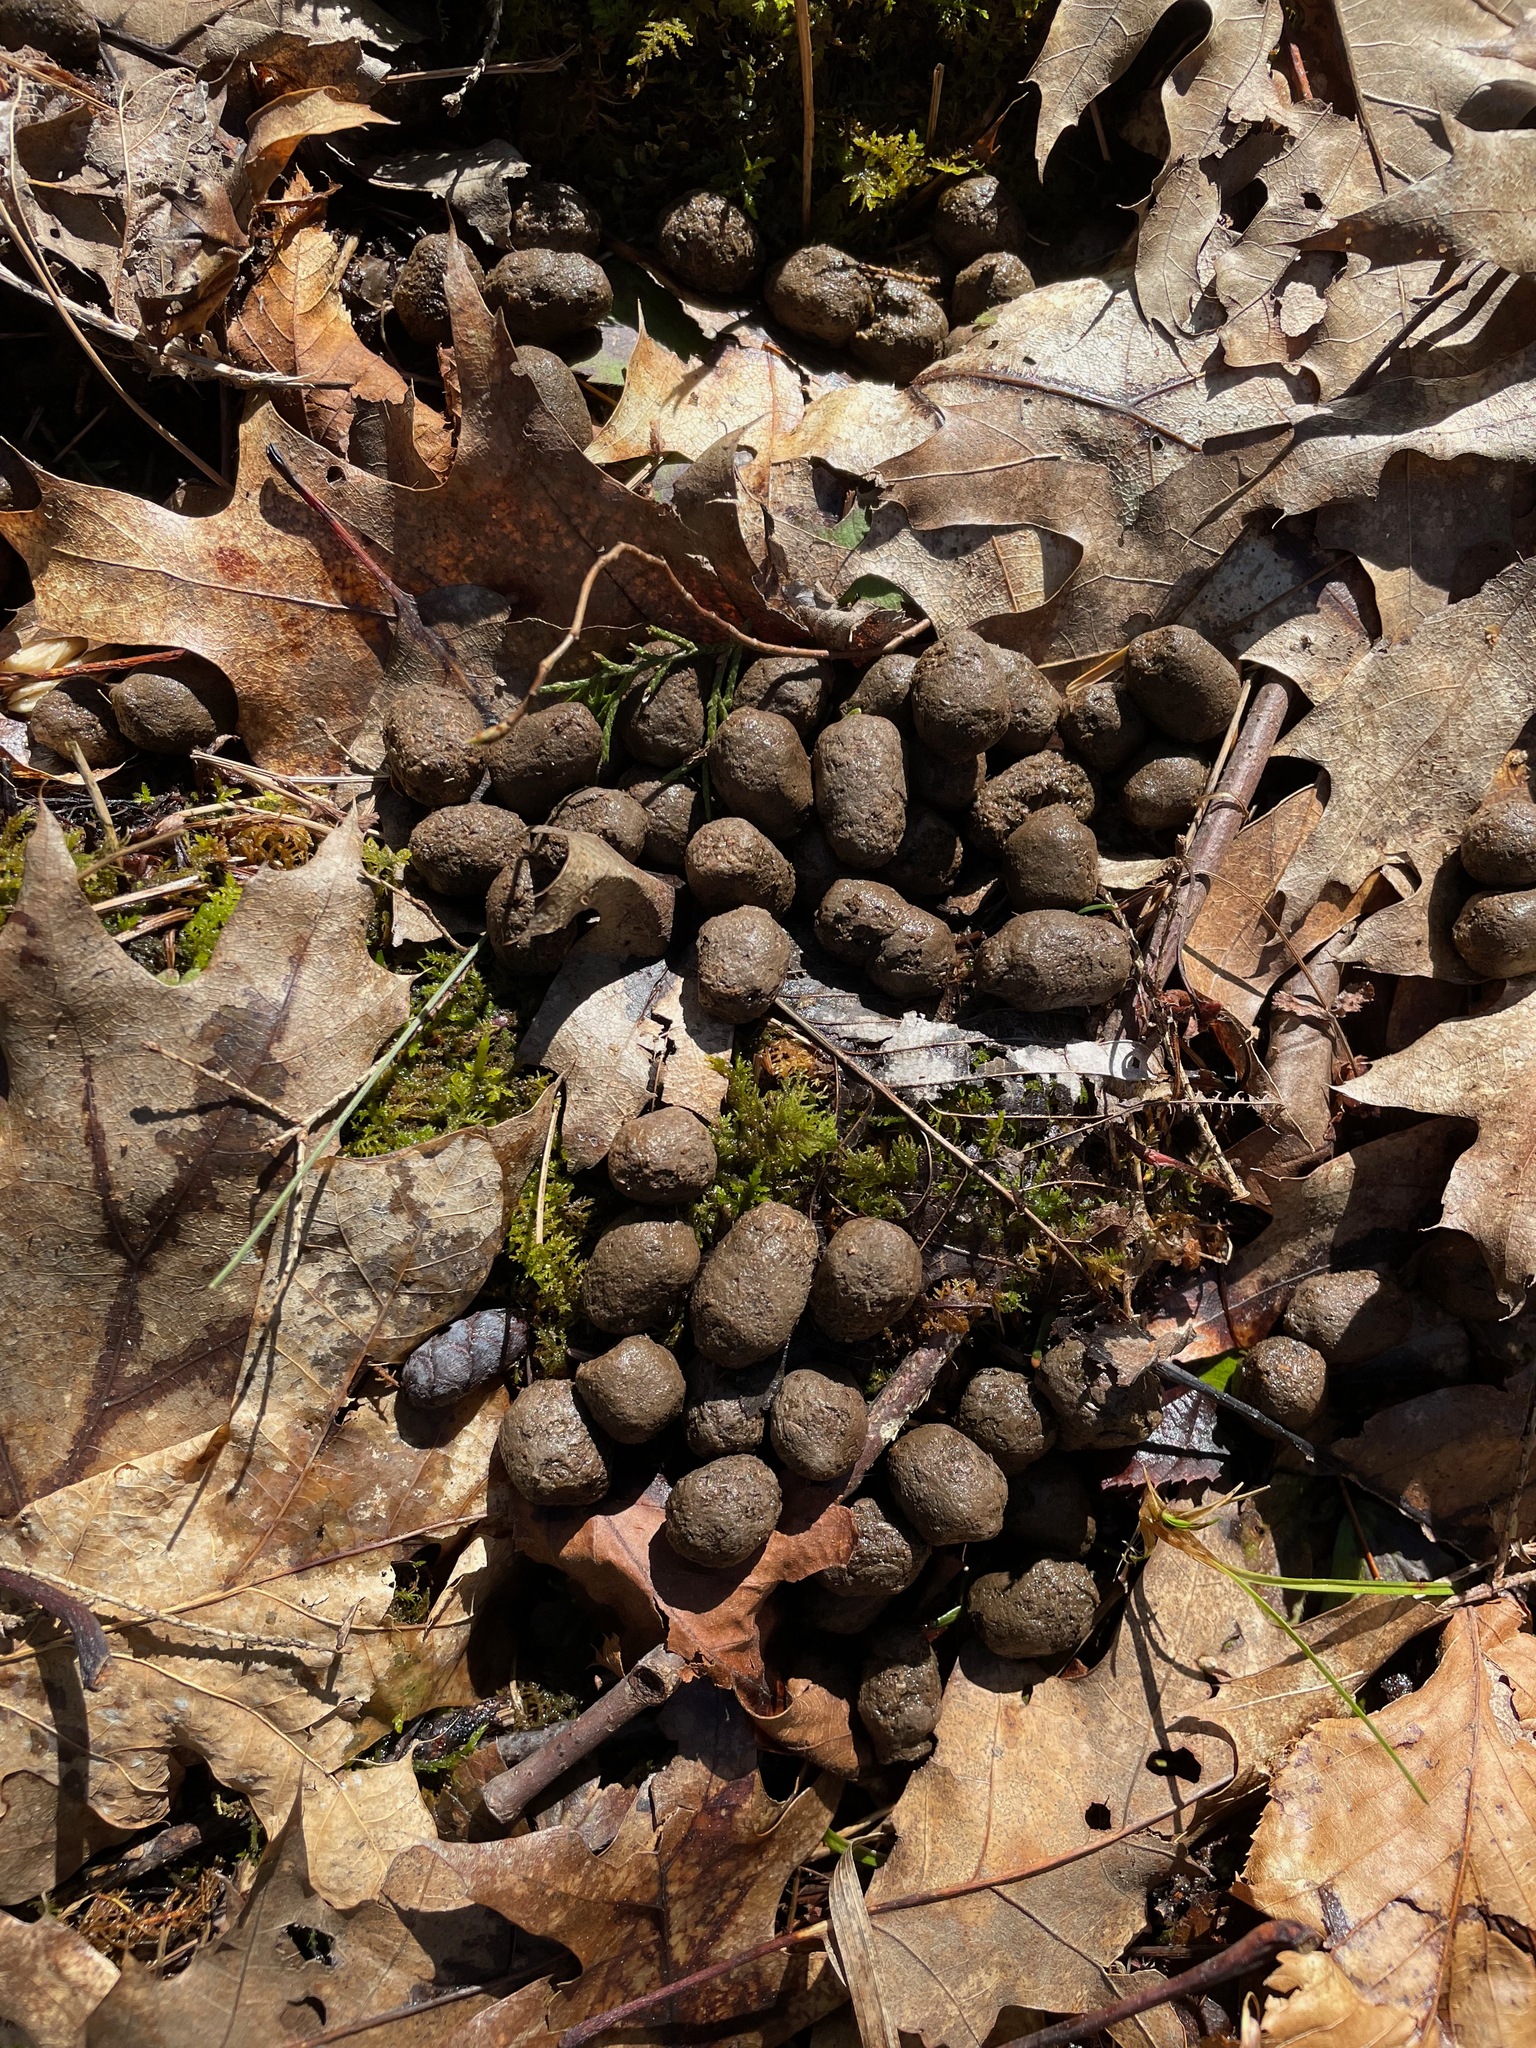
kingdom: Animalia
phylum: Chordata
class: Mammalia
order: Artiodactyla
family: Cervidae
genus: Odocoileus
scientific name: Odocoileus virginianus
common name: White-tailed deer
